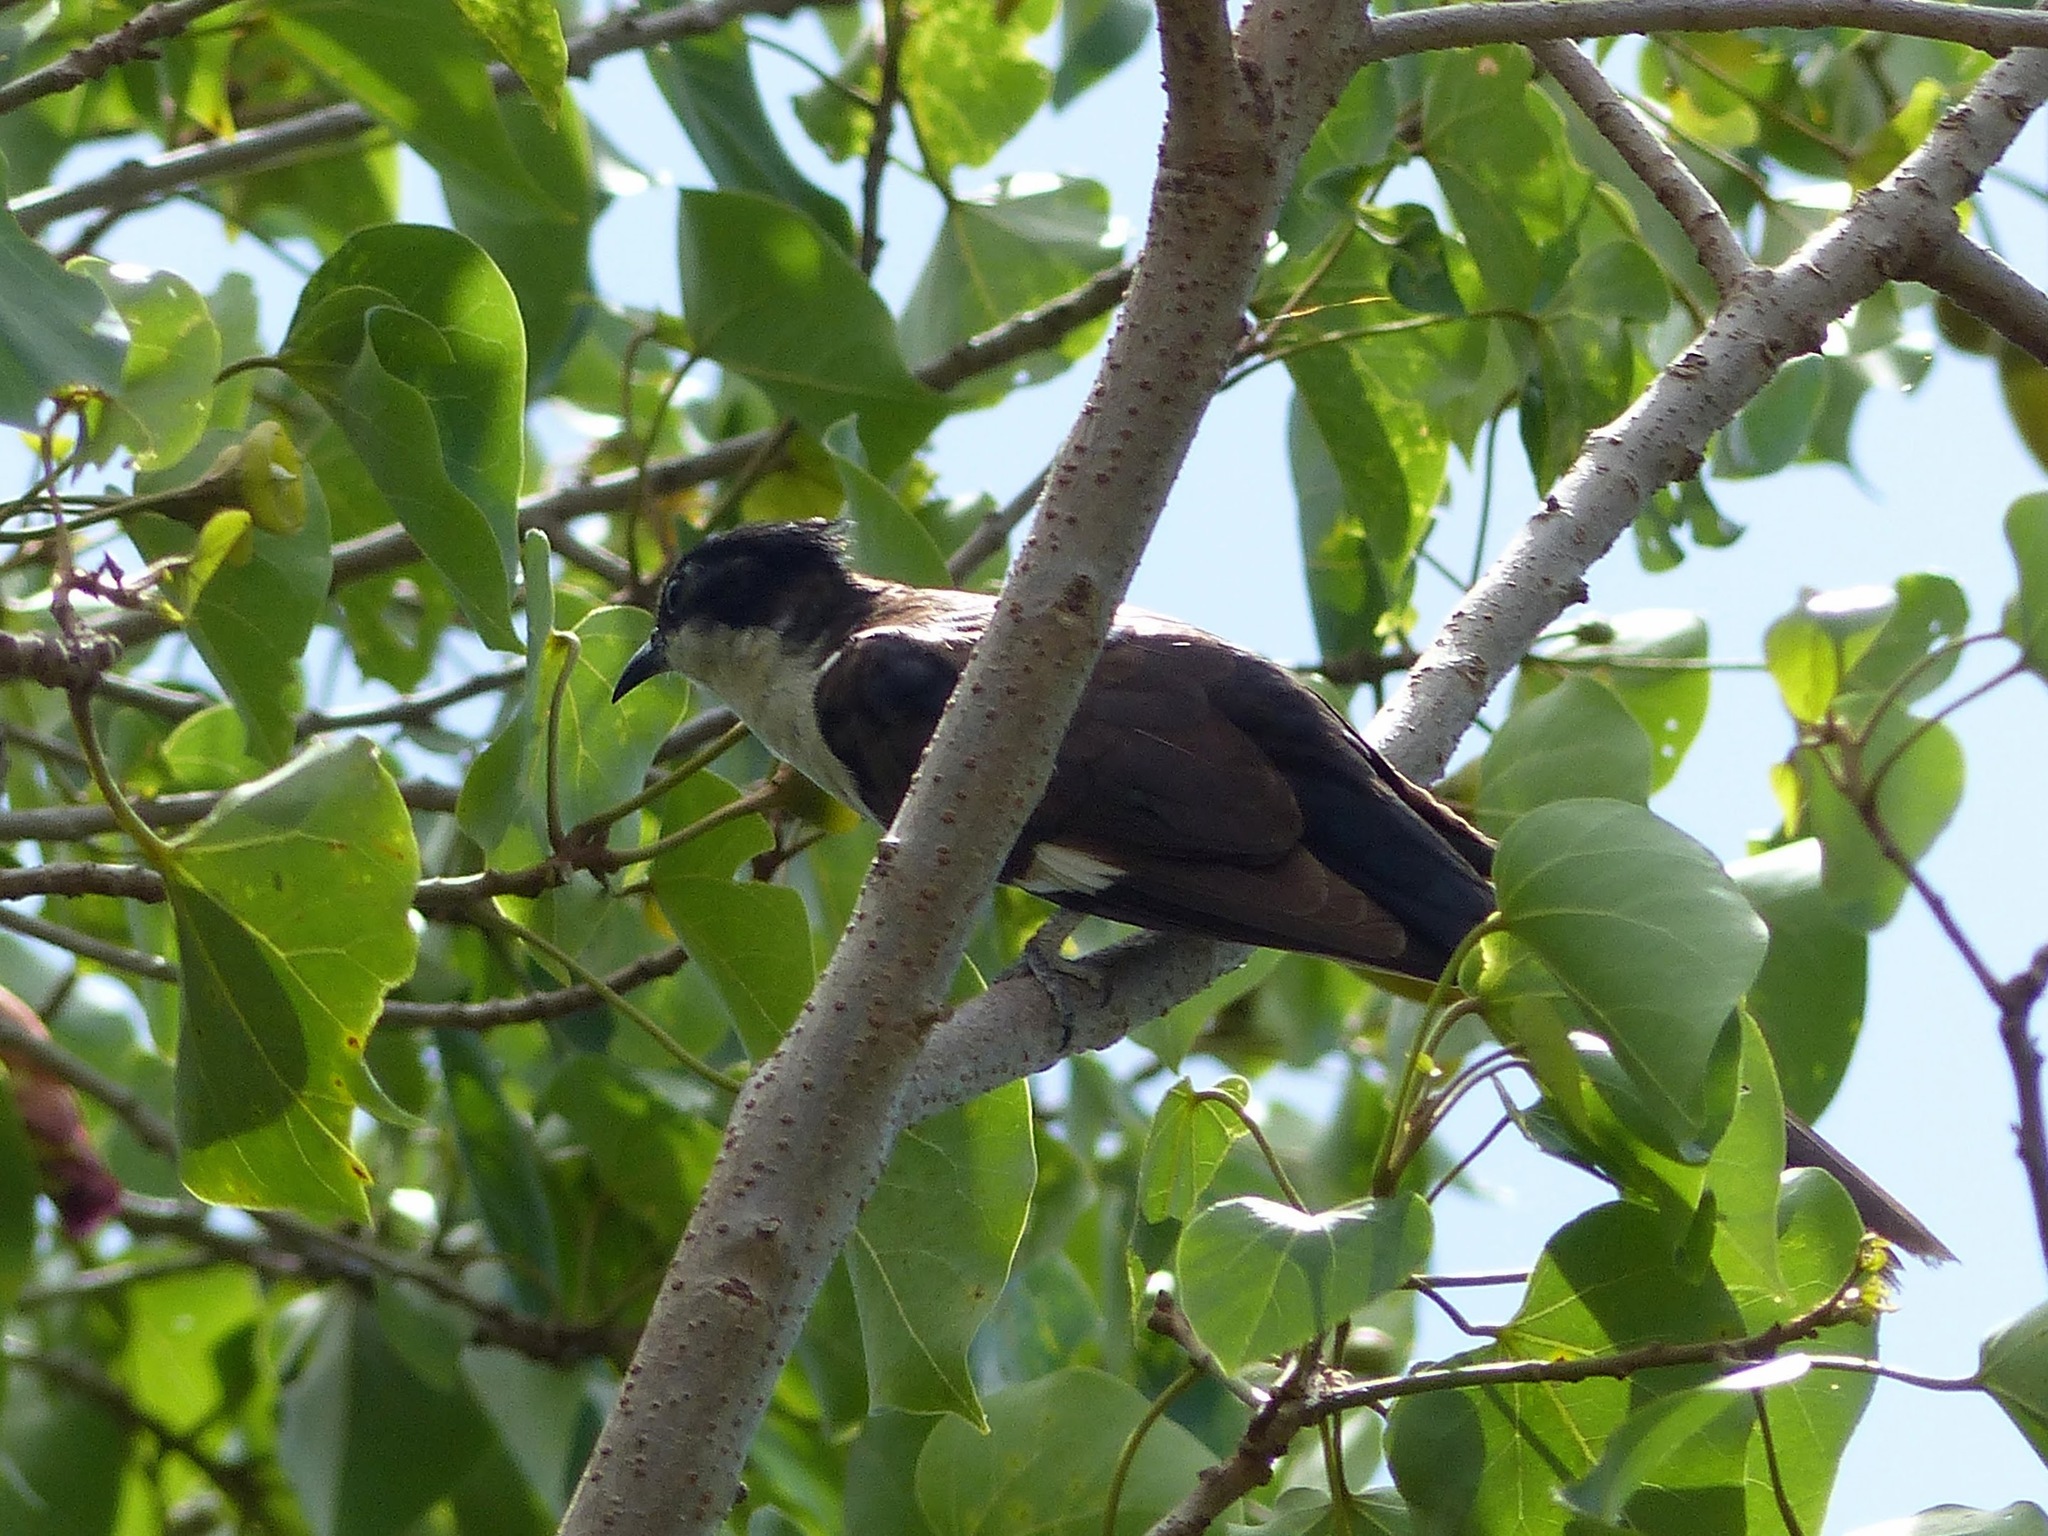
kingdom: Animalia
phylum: Chordata
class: Aves
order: Cuculiformes
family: Cuculidae
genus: Clamator
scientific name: Clamator jacobinus
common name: Jacobin cuckoo
